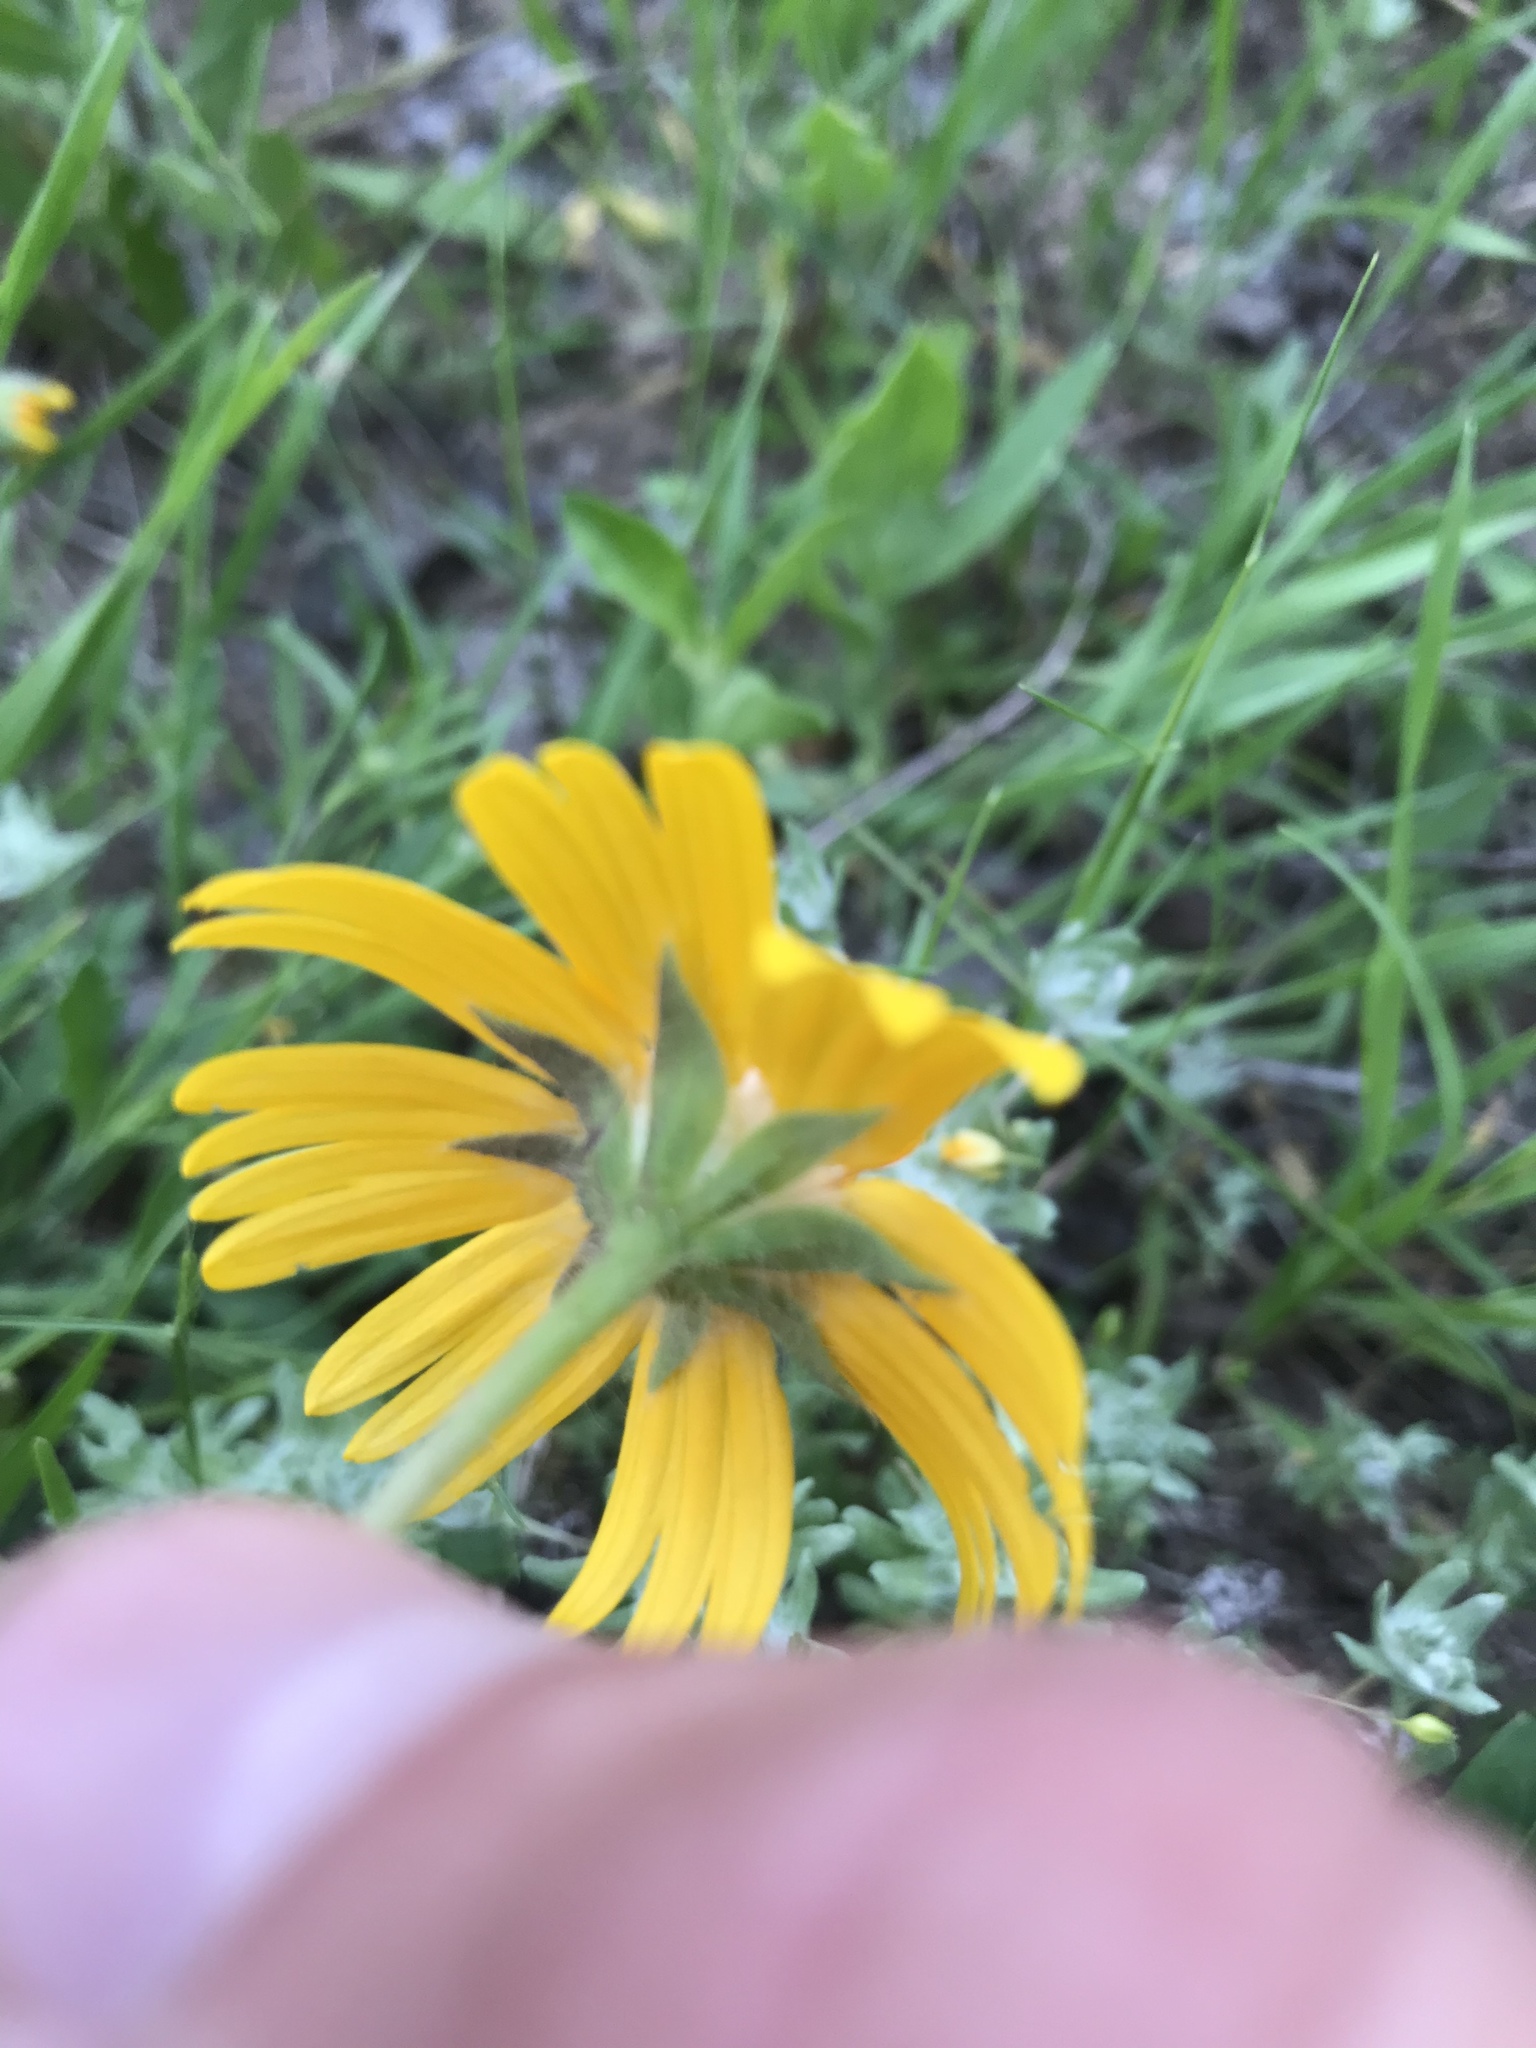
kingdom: Plantae
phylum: Tracheophyta
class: Magnoliopsida
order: Asterales
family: Asteraceae
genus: Amblyolepis
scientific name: Amblyolepis setigera
